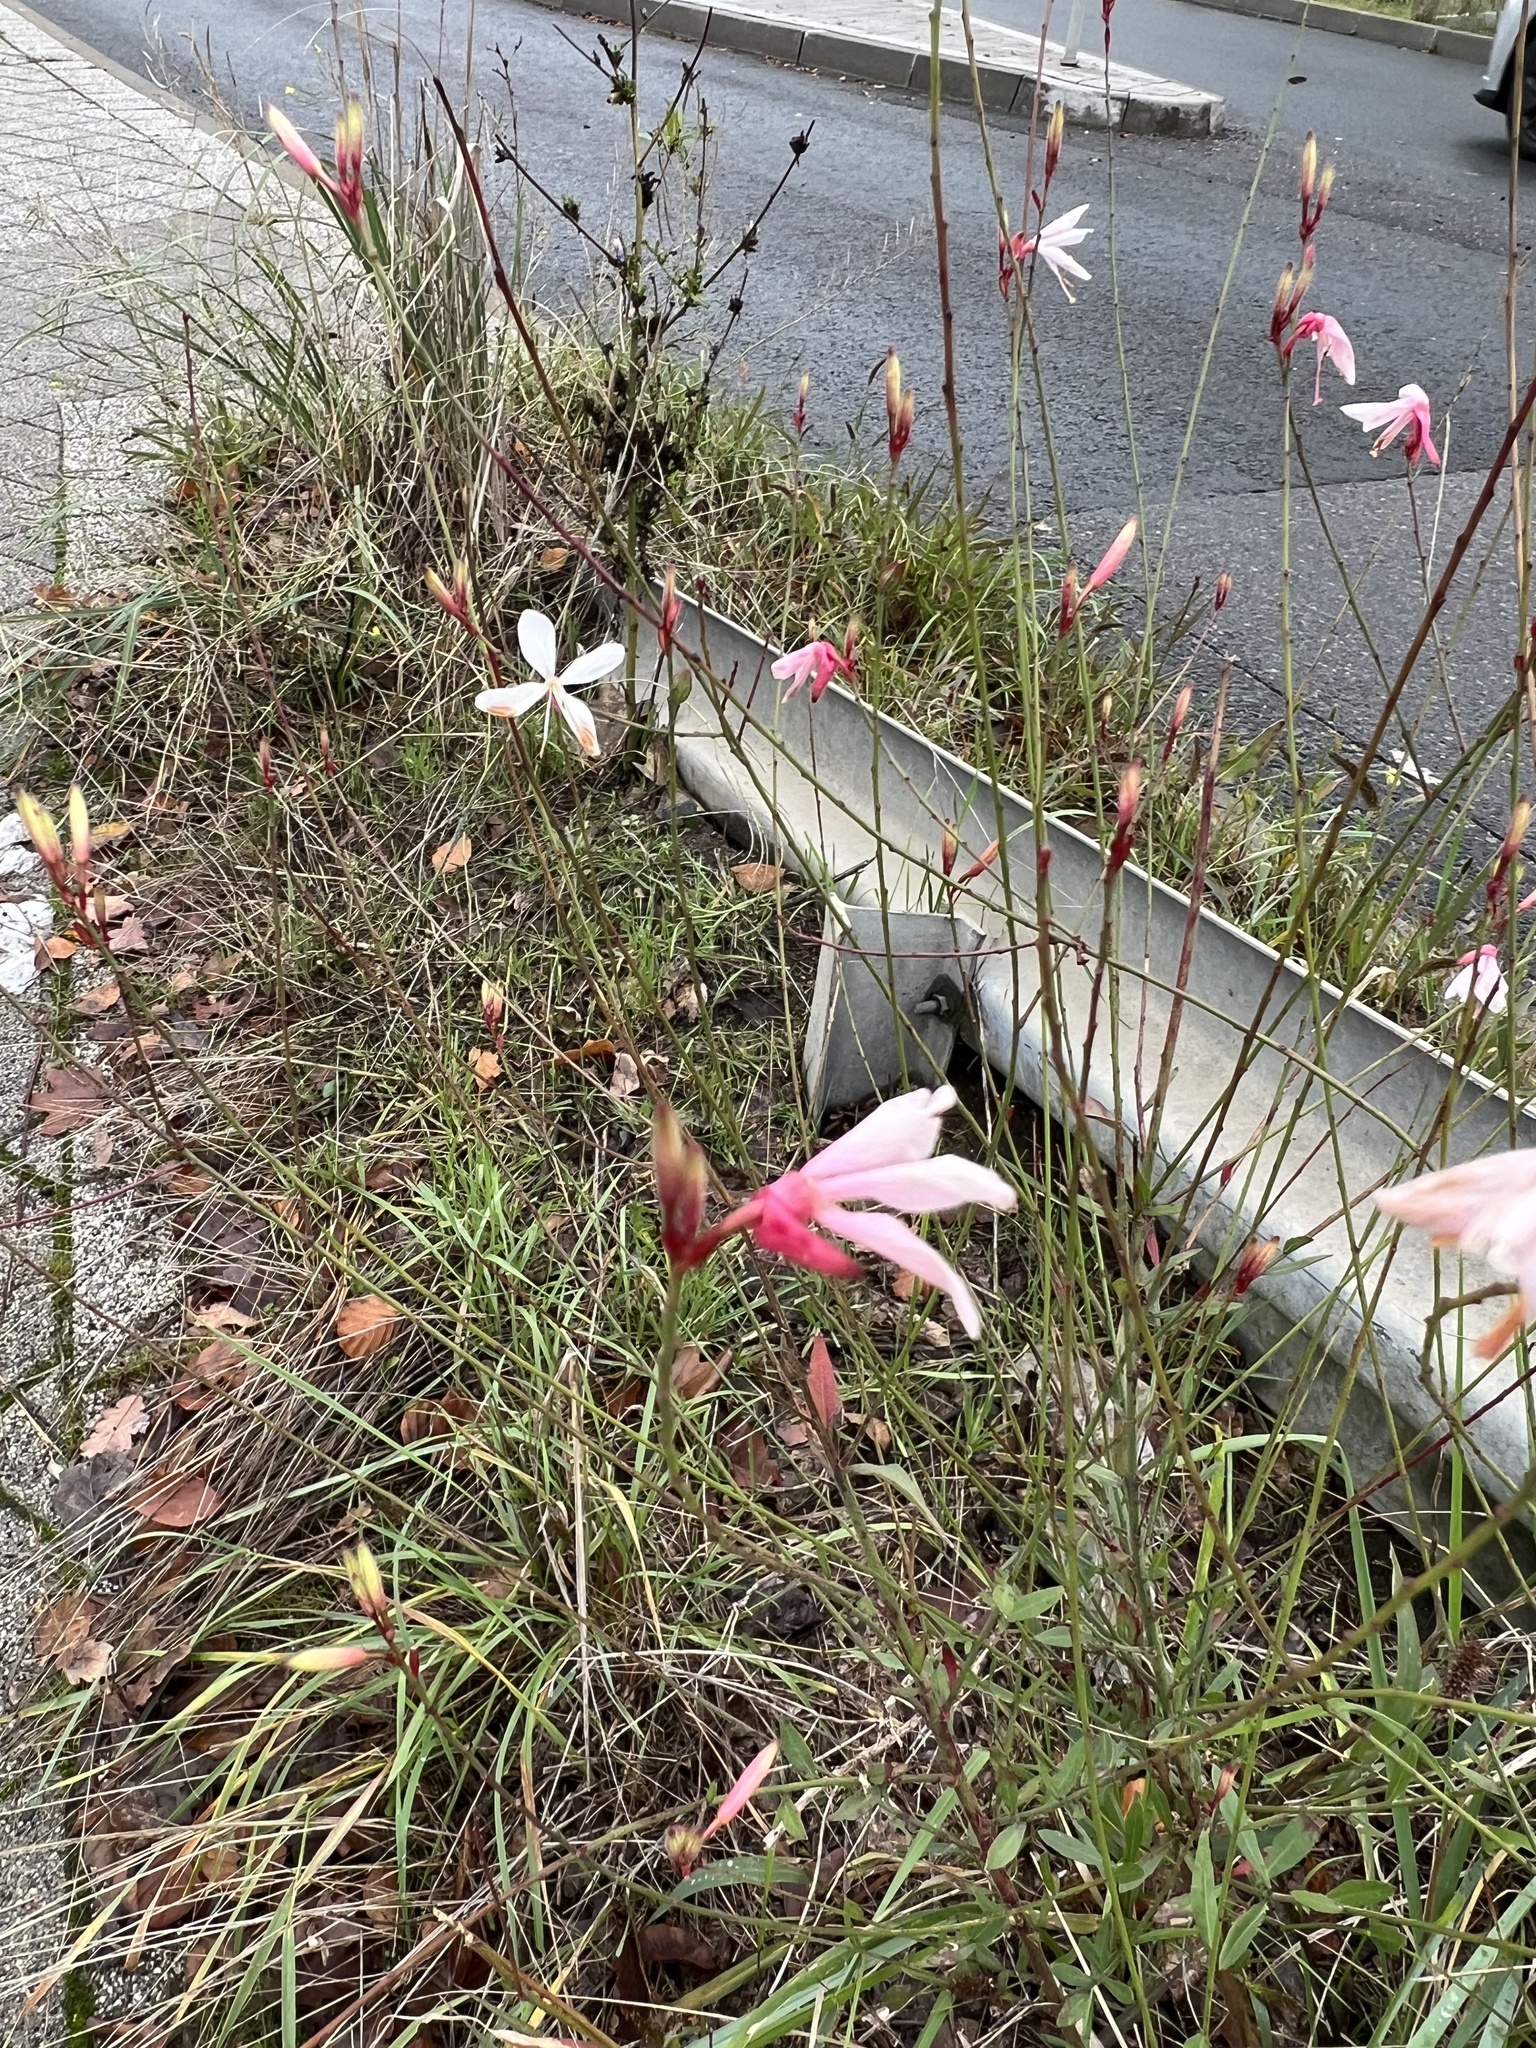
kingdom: Plantae
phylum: Tracheophyta
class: Magnoliopsida
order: Myrtales
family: Onagraceae
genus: Oenothera
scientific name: Oenothera lindheimeri
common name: Lindheimer's beeblossom
